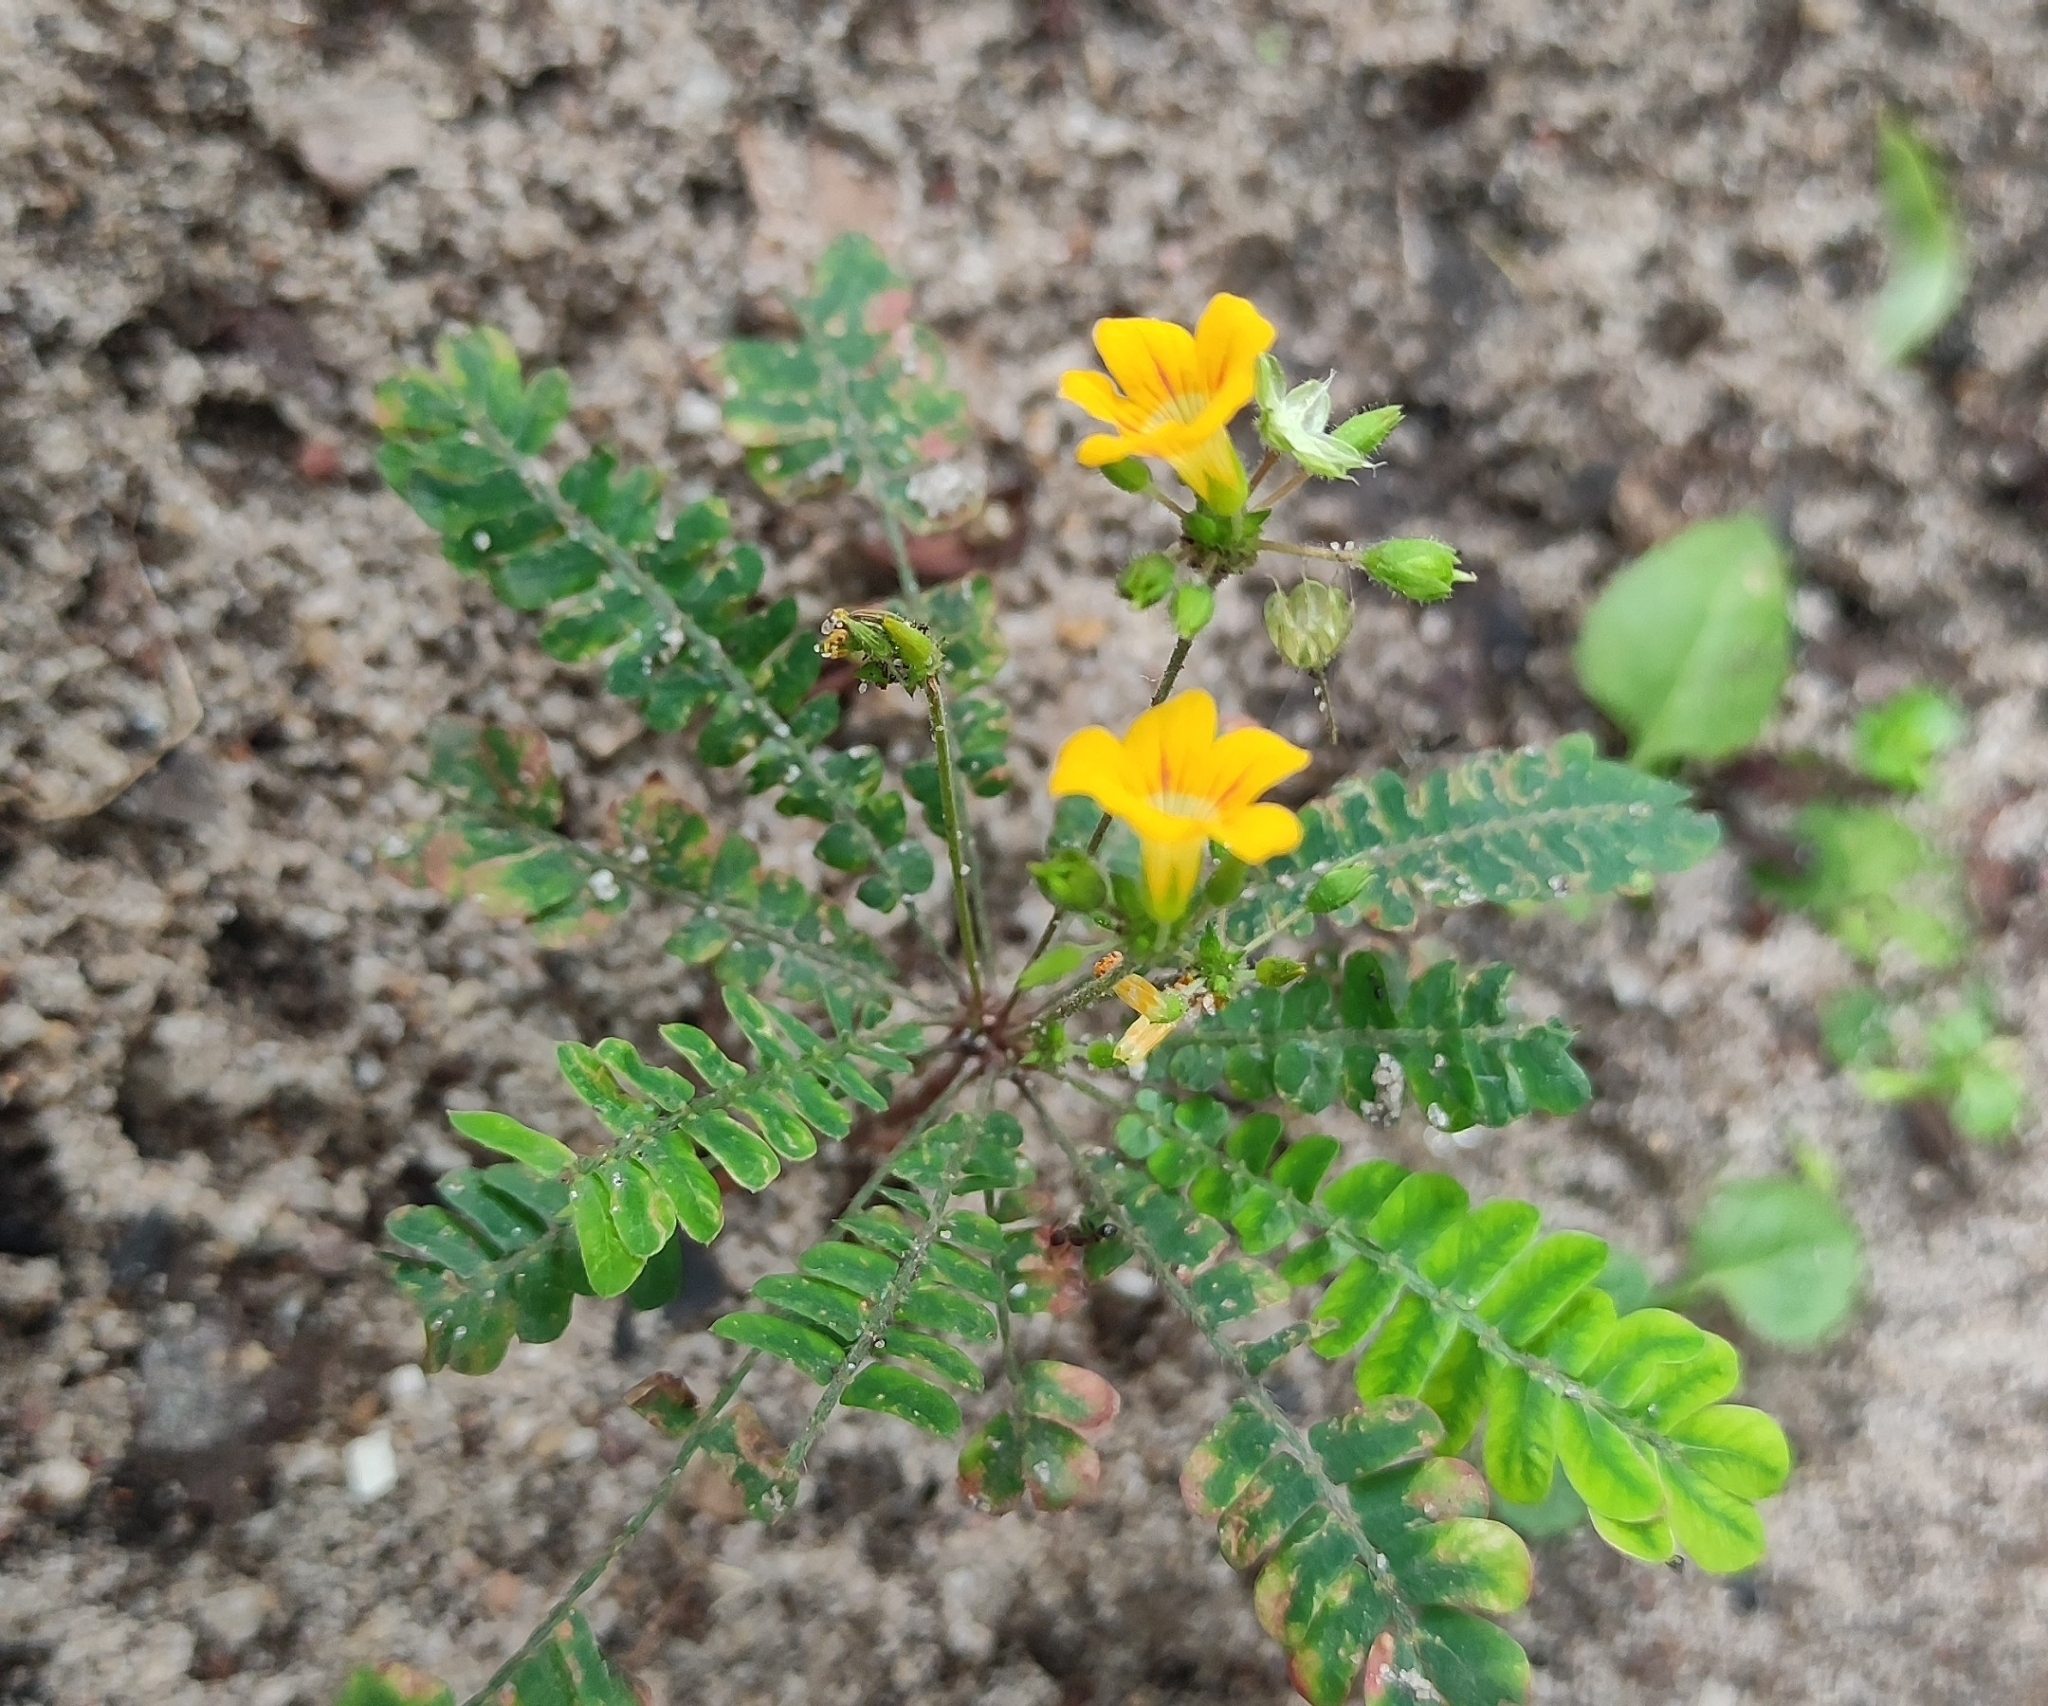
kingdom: Plantae
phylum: Tracheophyta
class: Magnoliopsida
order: Oxalidales
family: Oxalidaceae
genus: Biophytum
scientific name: Biophytum sensitivum
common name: Lifeplant
